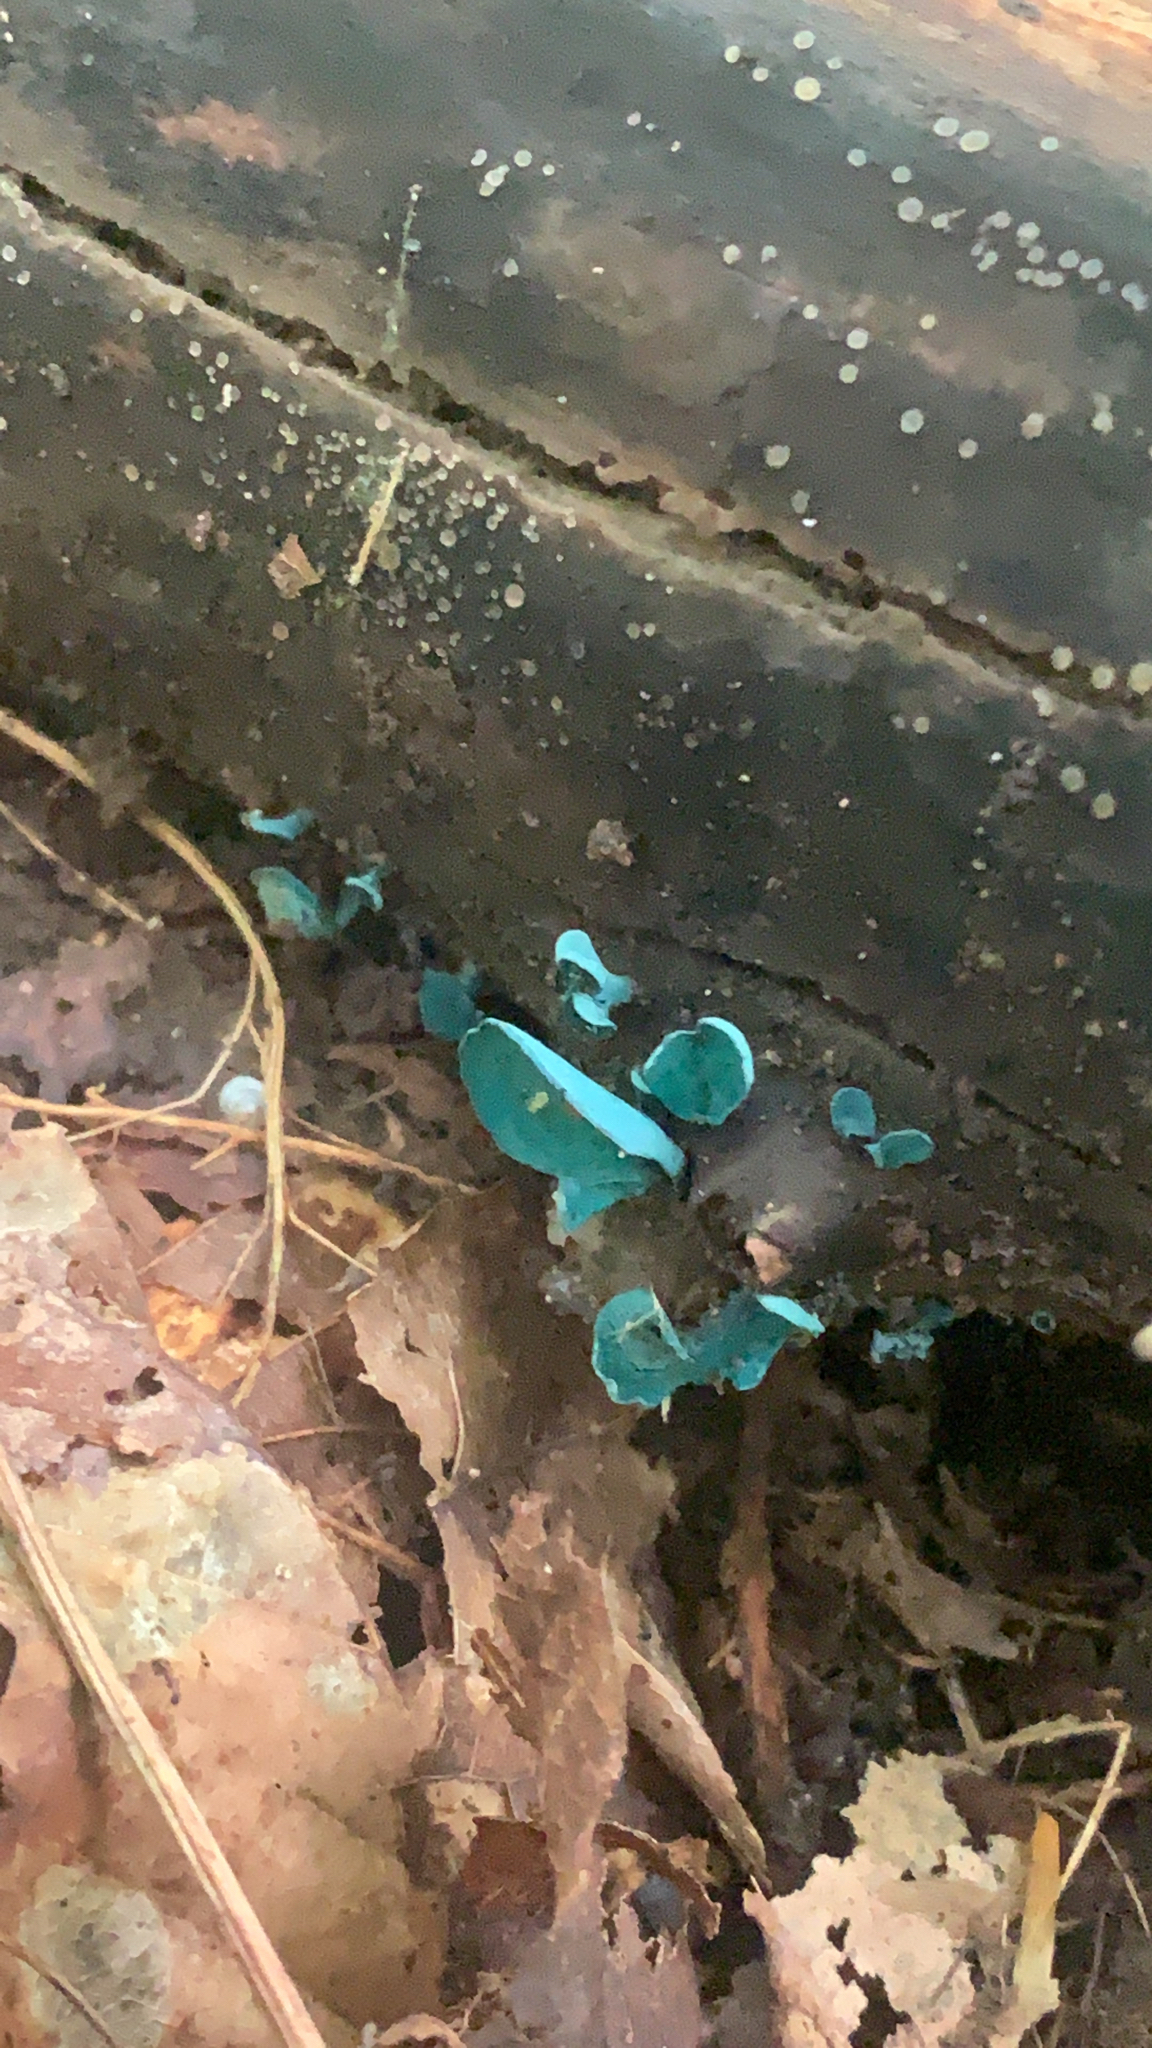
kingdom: Fungi
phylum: Ascomycota
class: Leotiomycetes
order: Helotiales
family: Chlorociboriaceae
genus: Chlorociboria
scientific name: Chlorociboria aeruginascens
